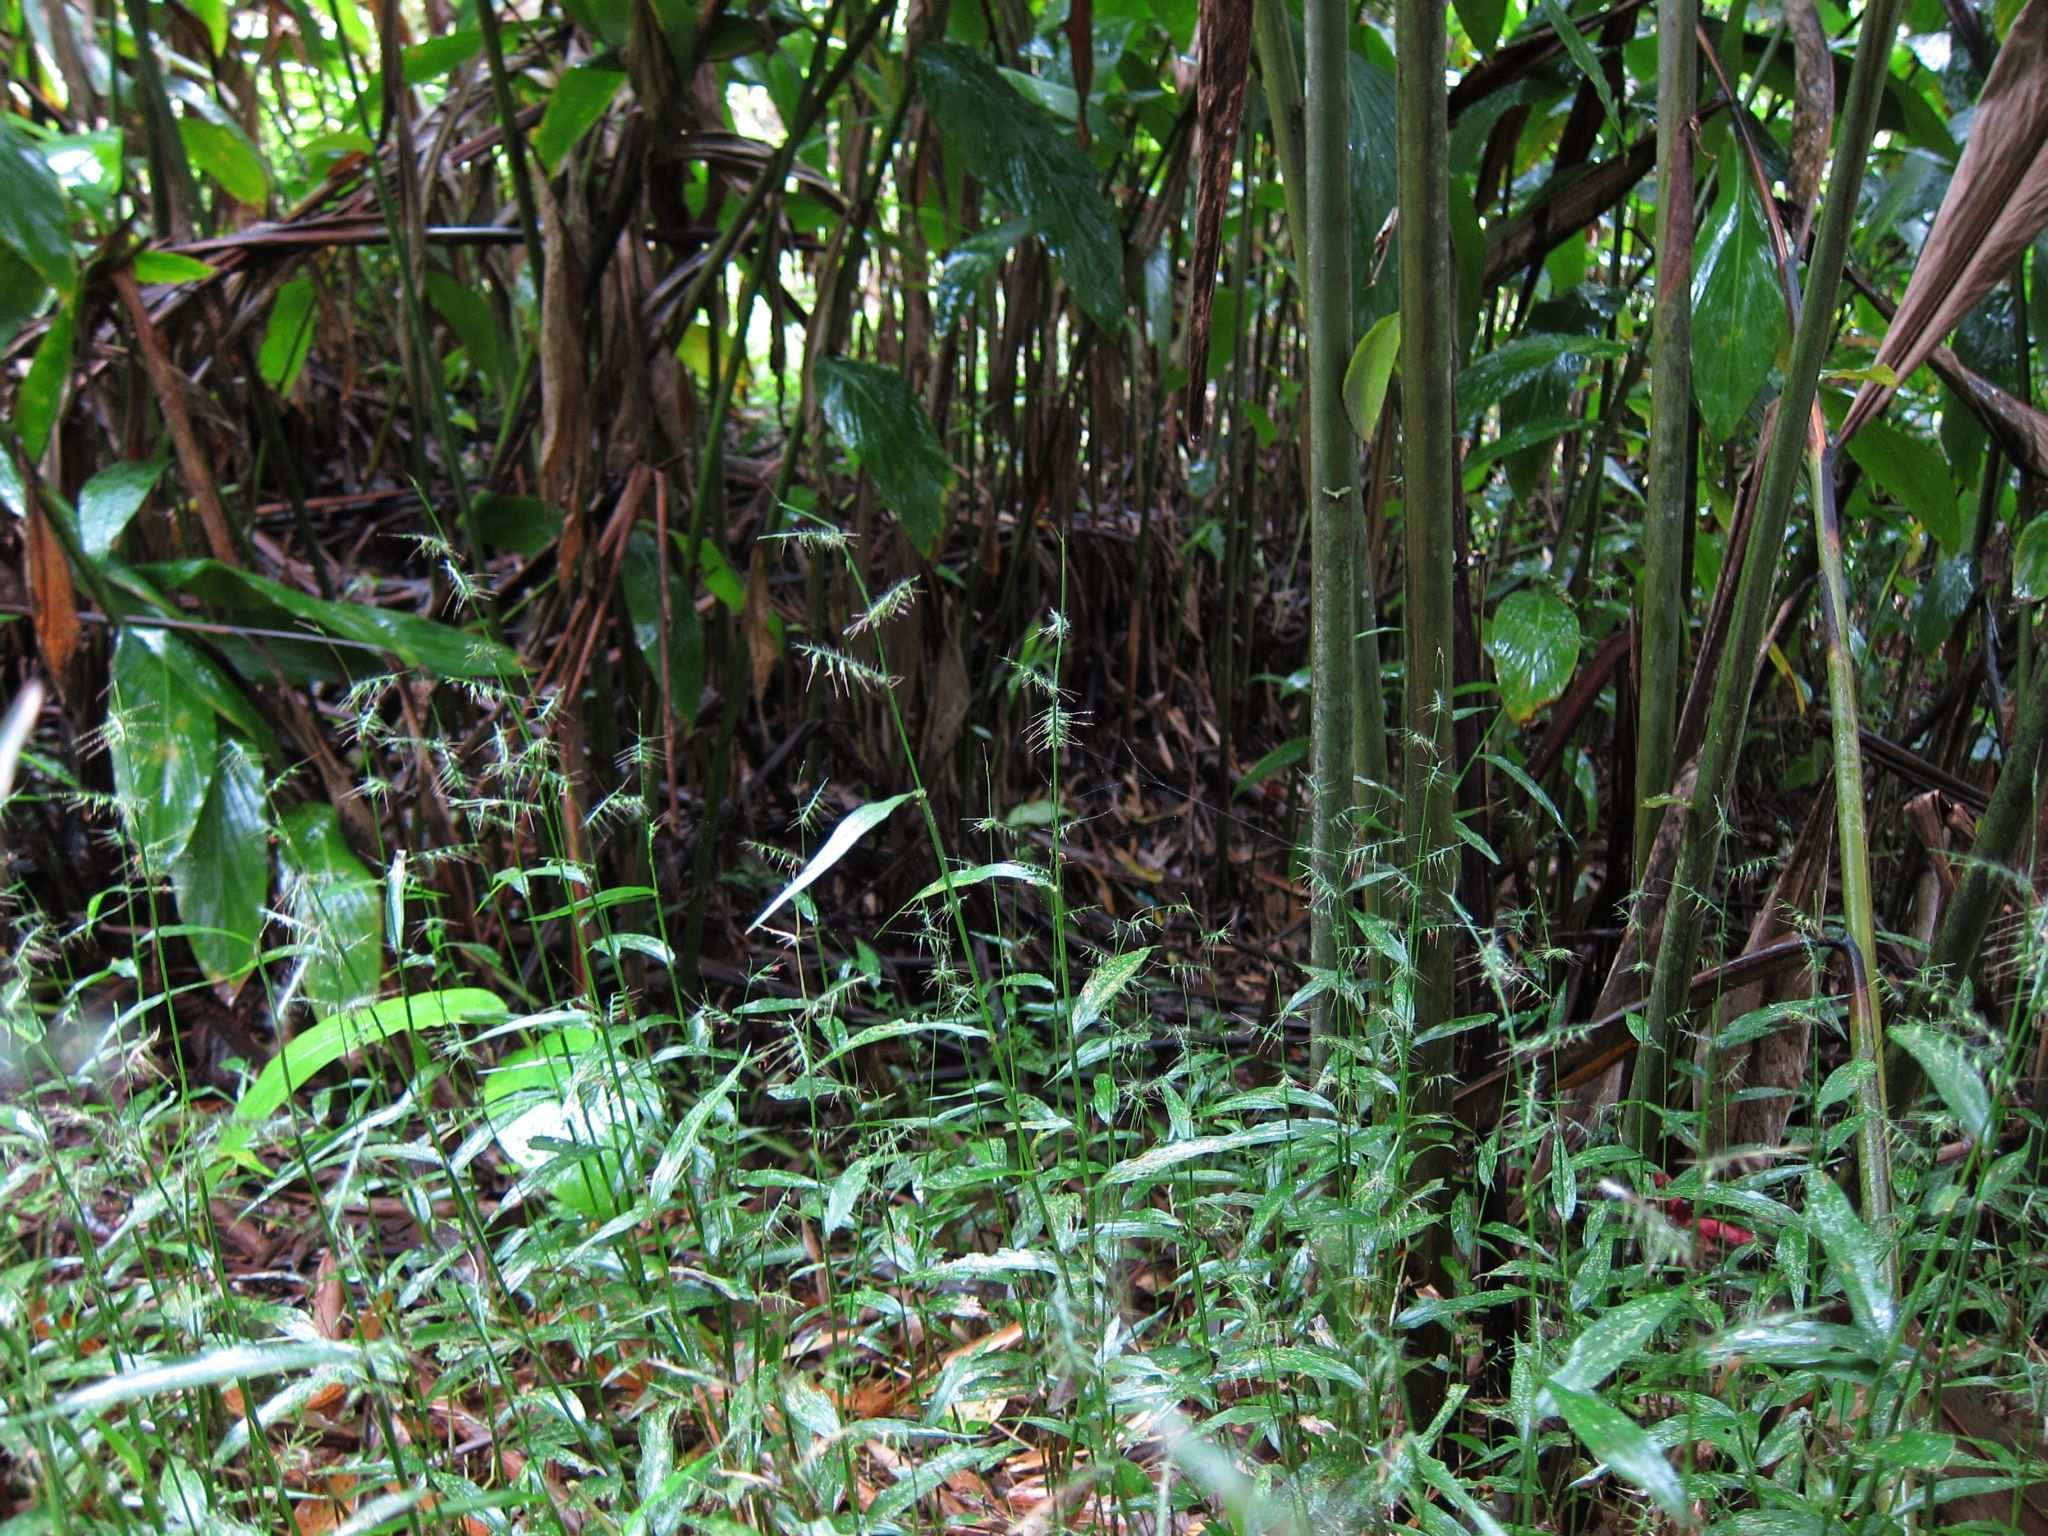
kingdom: Plantae
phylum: Tracheophyta
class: Liliopsida
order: Poales
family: Poaceae
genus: Oplismenus
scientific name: Oplismenus hirtellus
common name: Basketgrass
